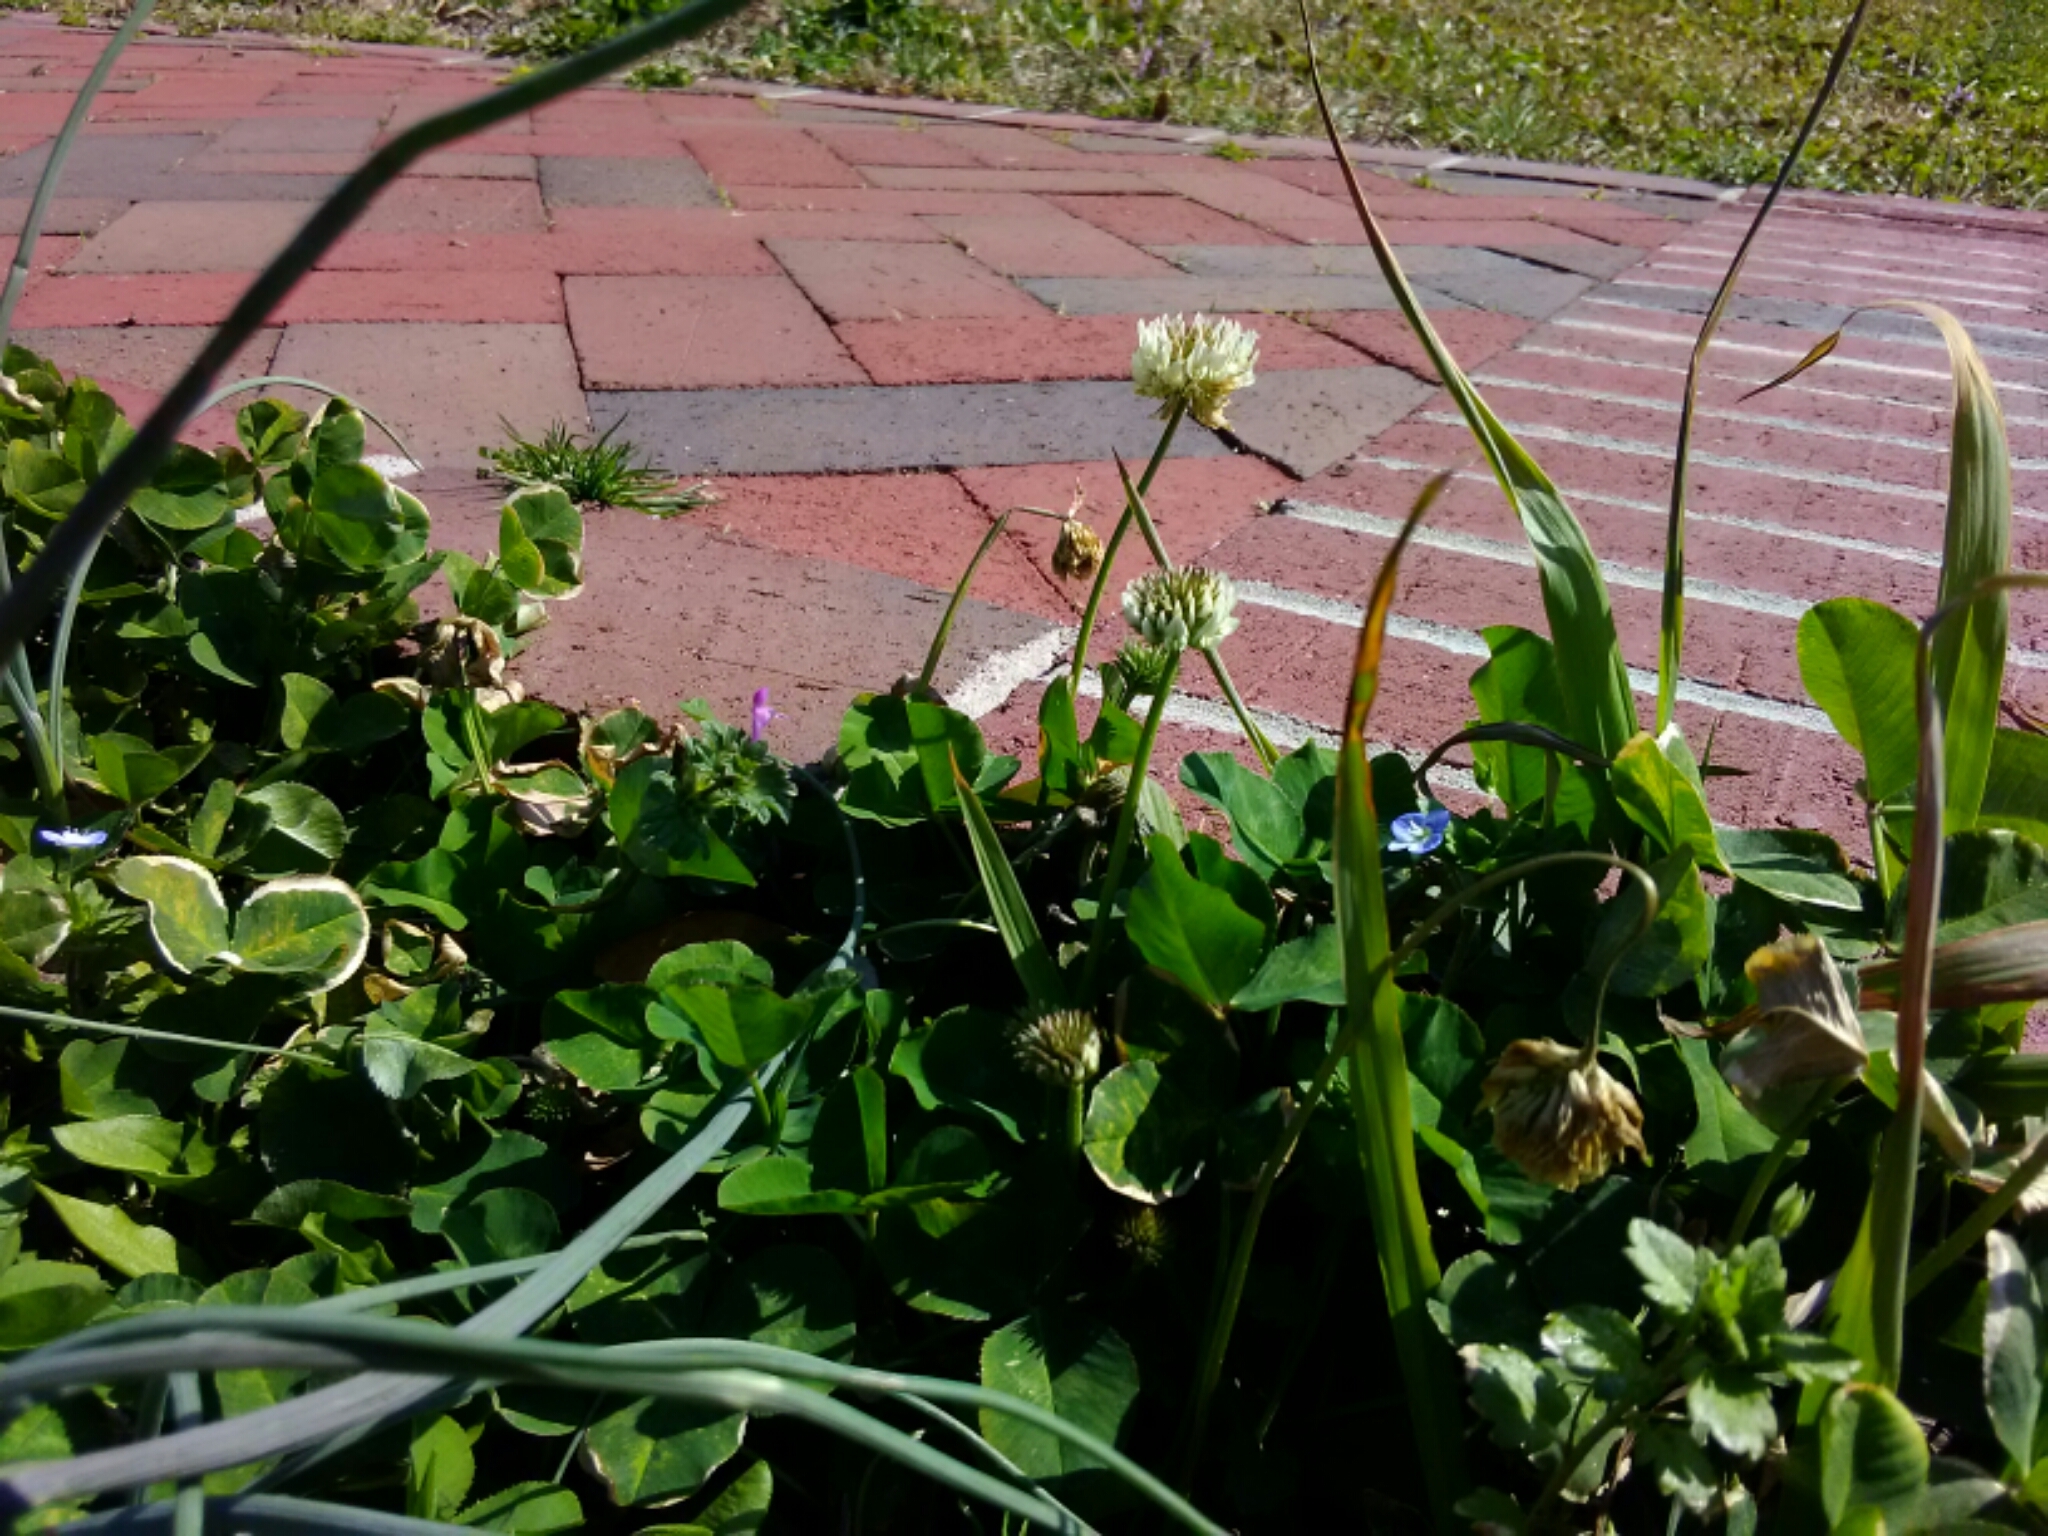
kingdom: Plantae
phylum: Tracheophyta
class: Magnoliopsida
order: Fabales
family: Fabaceae
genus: Trifolium
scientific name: Trifolium repens
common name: White clover
